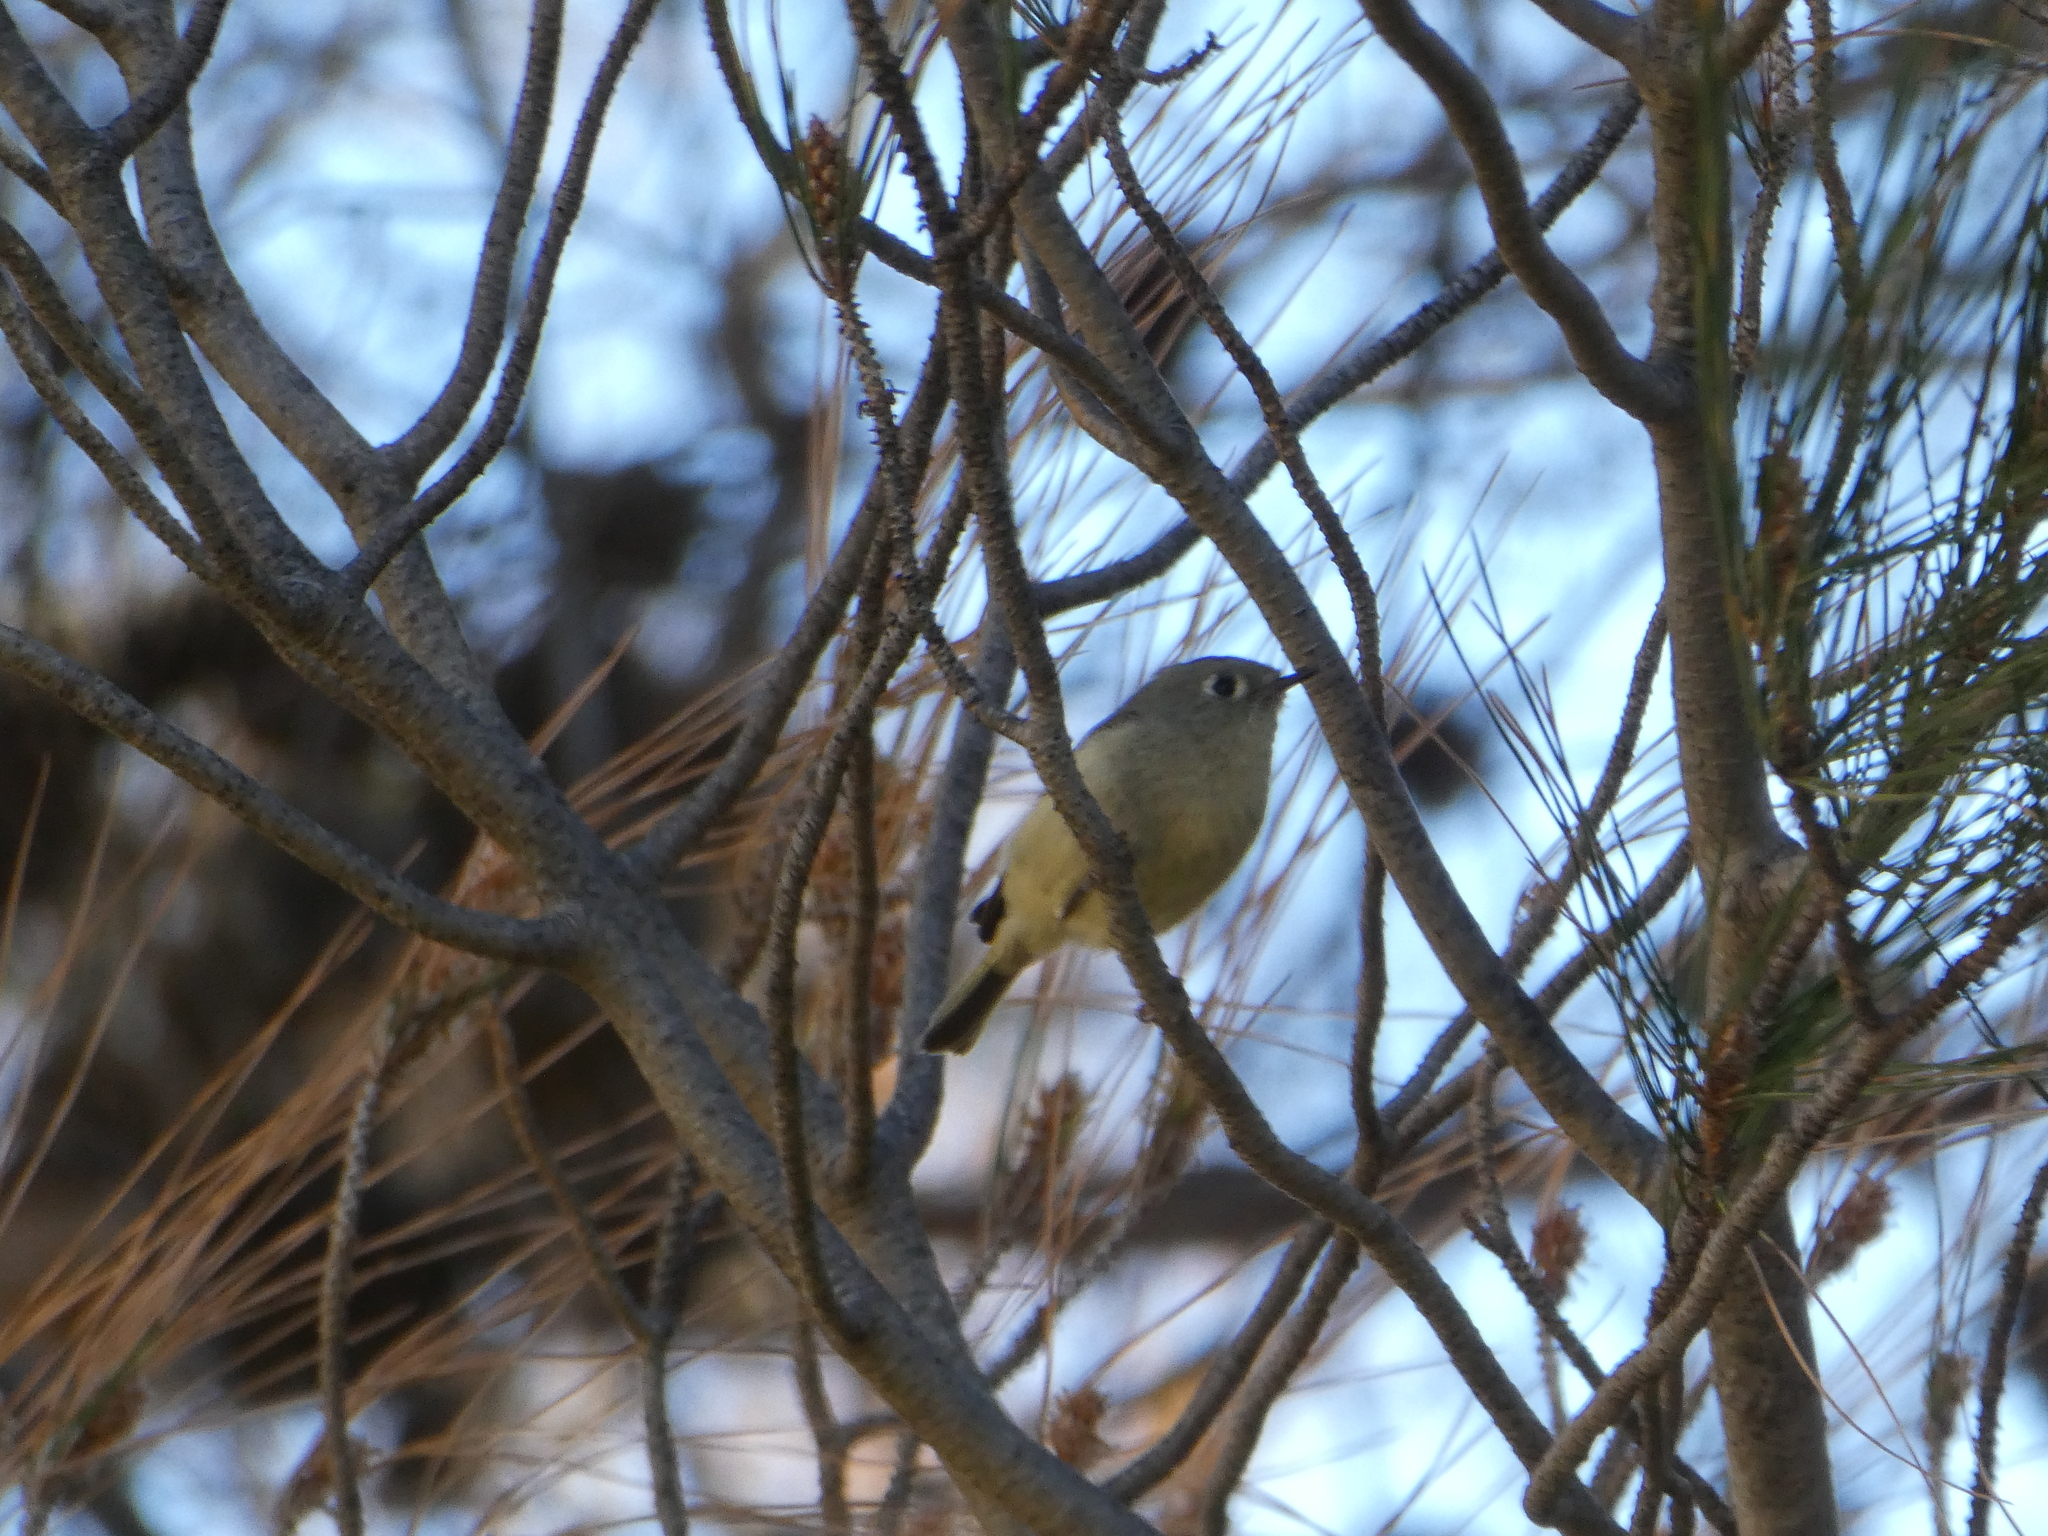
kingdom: Animalia
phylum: Chordata
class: Aves
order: Passeriformes
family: Regulidae
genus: Regulus
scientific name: Regulus calendula
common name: Ruby-crowned kinglet
